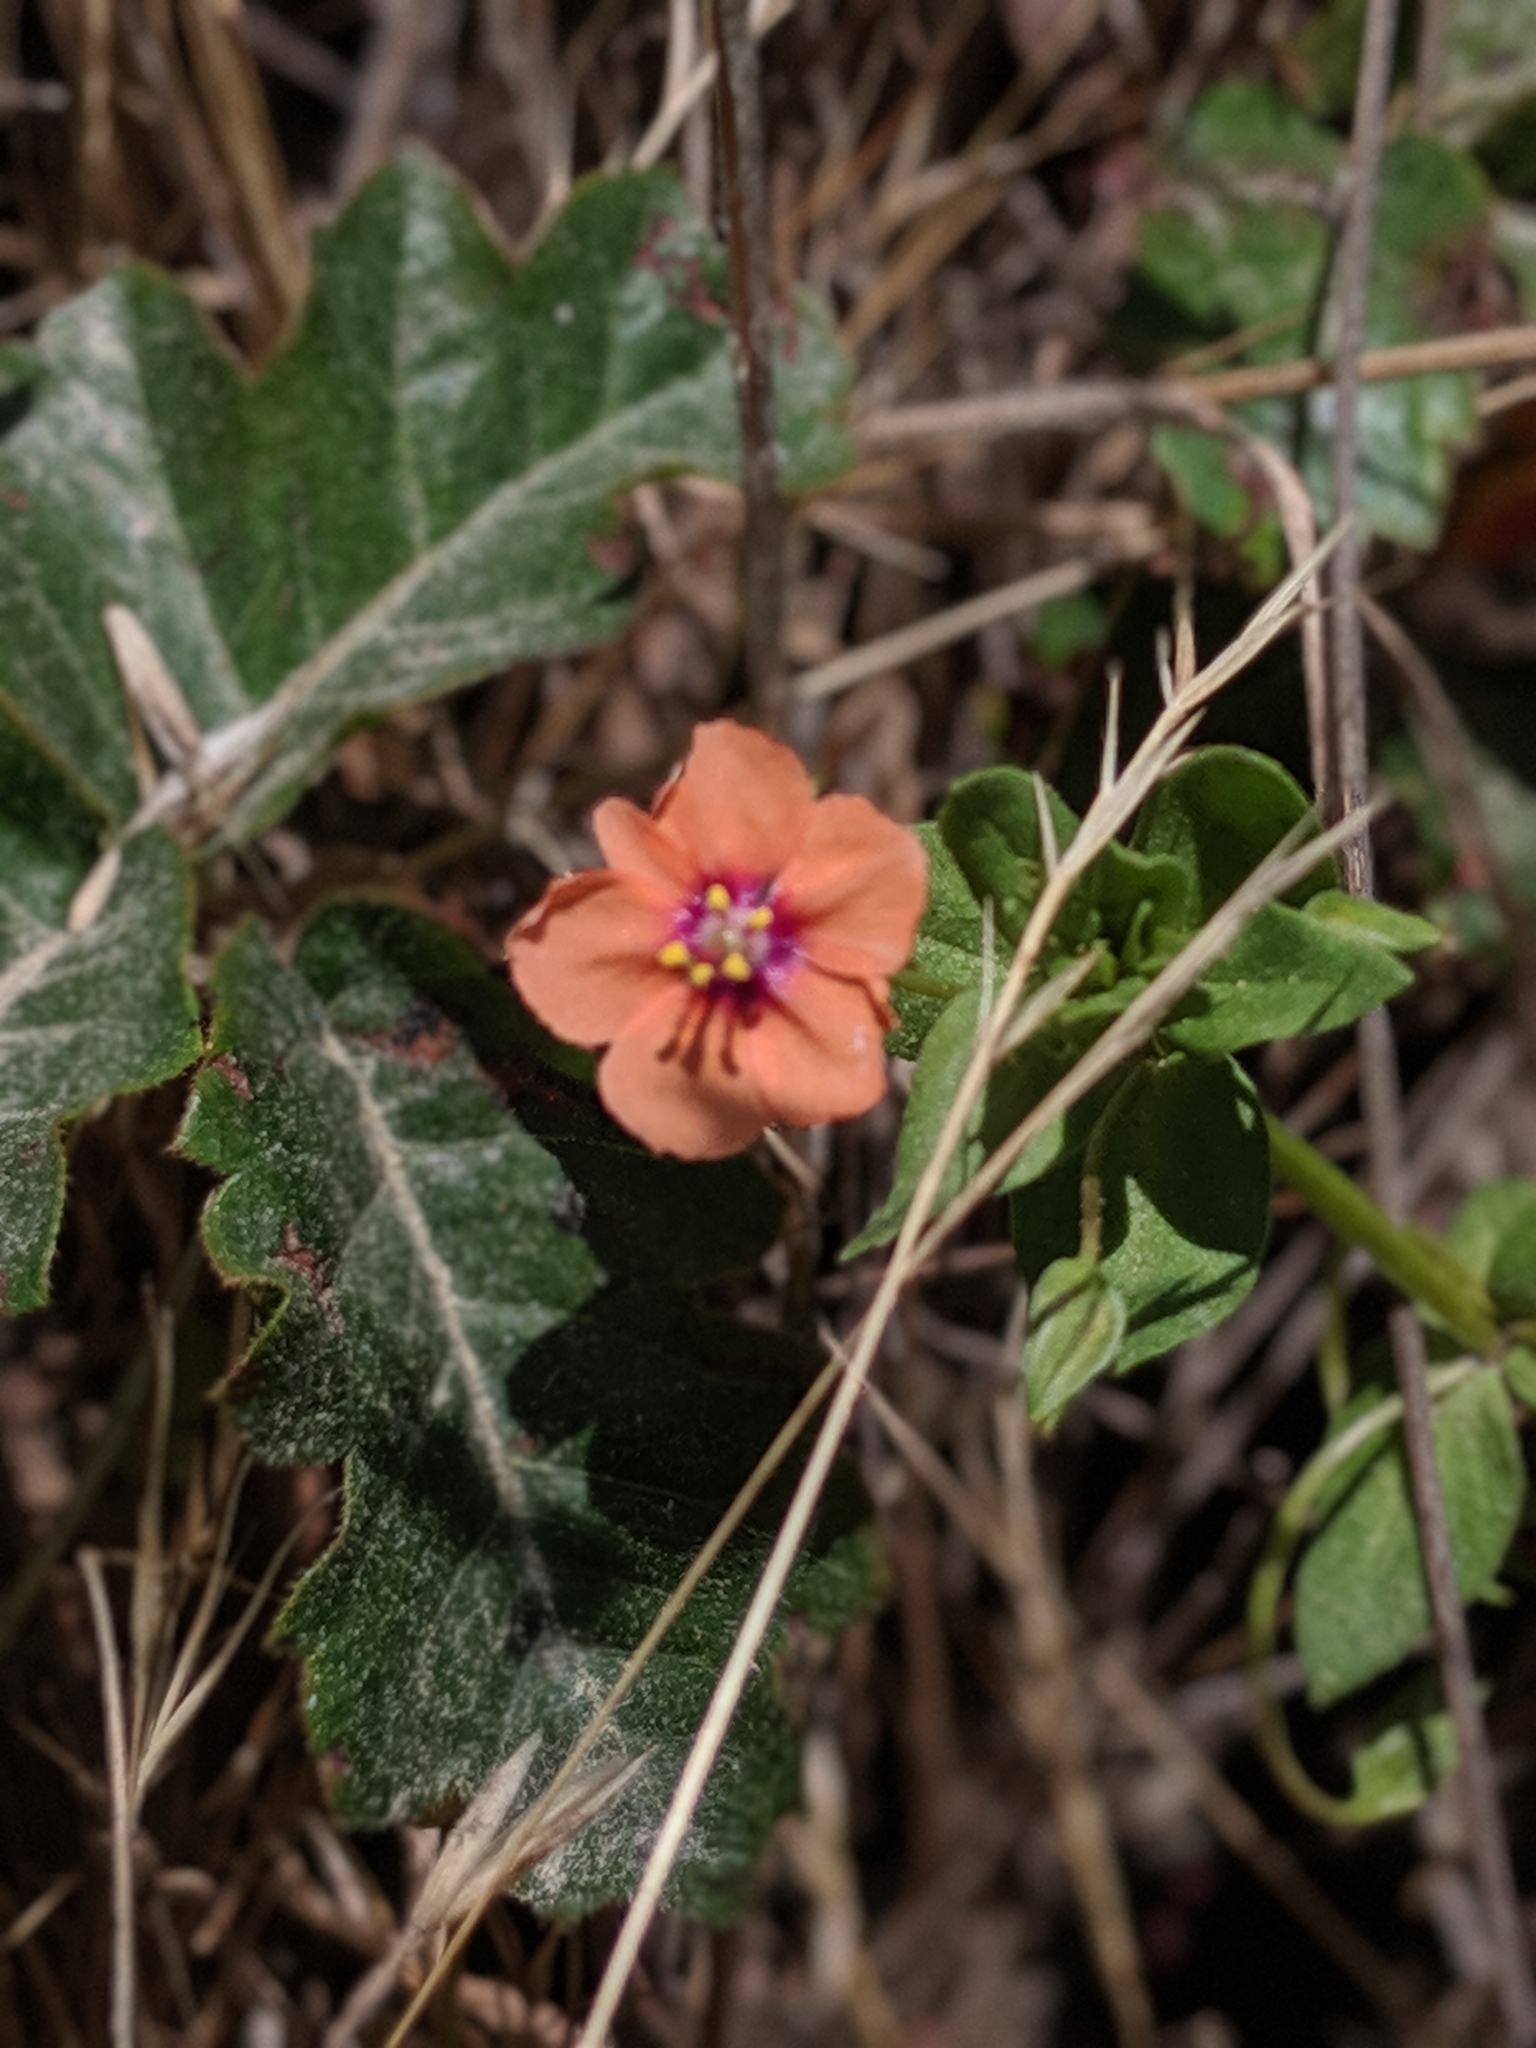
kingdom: Plantae
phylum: Tracheophyta
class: Magnoliopsida
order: Ericales
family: Primulaceae
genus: Lysimachia
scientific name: Lysimachia arvensis
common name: Scarlet pimpernel
